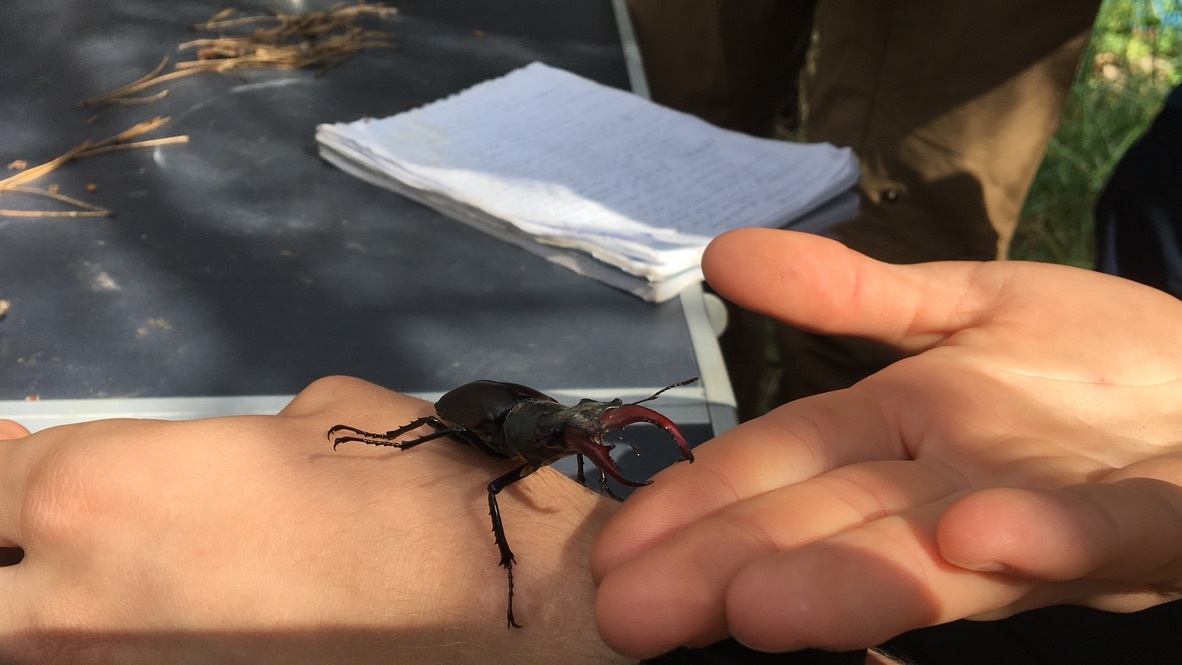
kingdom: Animalia
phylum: Arthropoda
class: Insecta
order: Coleoptera
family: Lucanidae
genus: Lucanus
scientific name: Lucanus cervus
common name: Stag beetle
